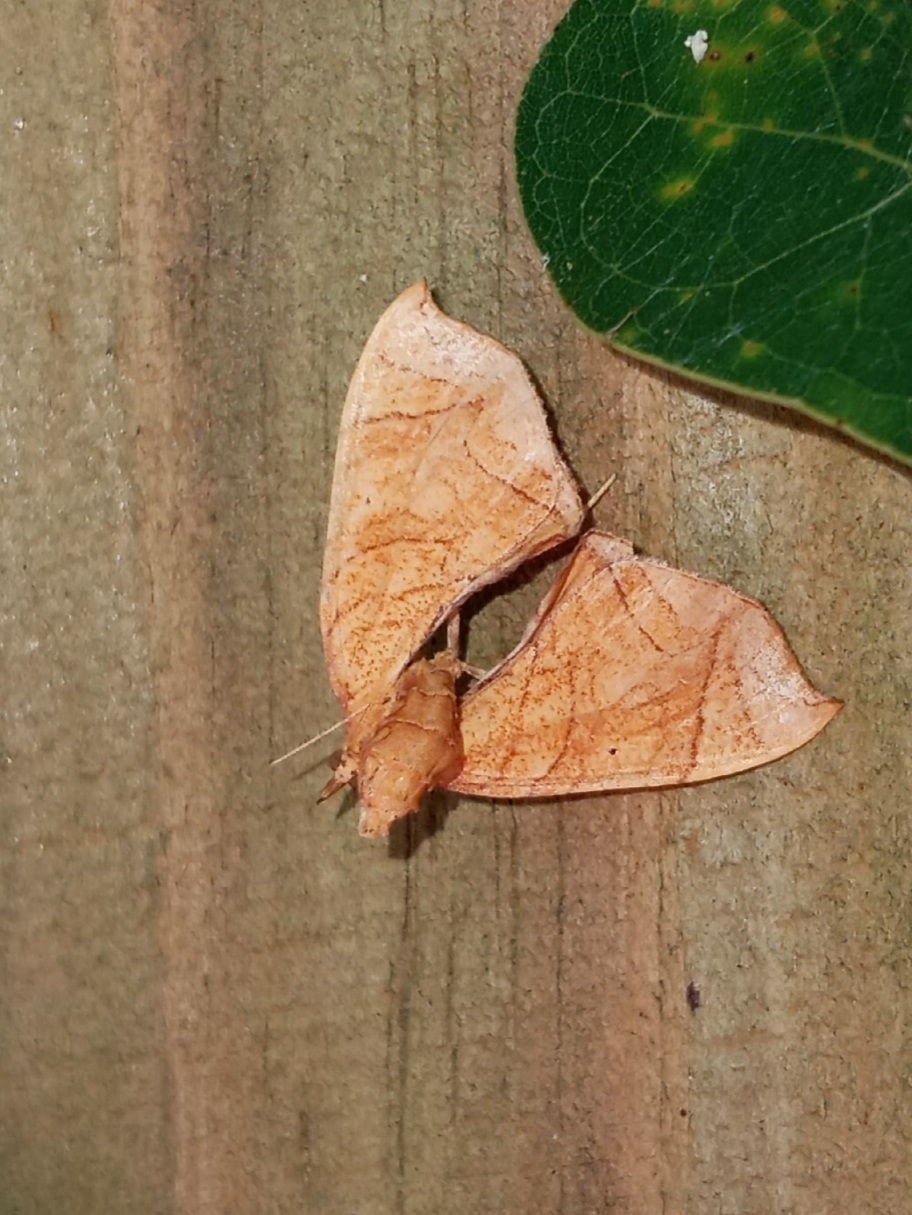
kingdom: Animalia
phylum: Arthropoda
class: Insecta
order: Lepidoptera
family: Geometridae
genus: Eulithis
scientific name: Eulithis
